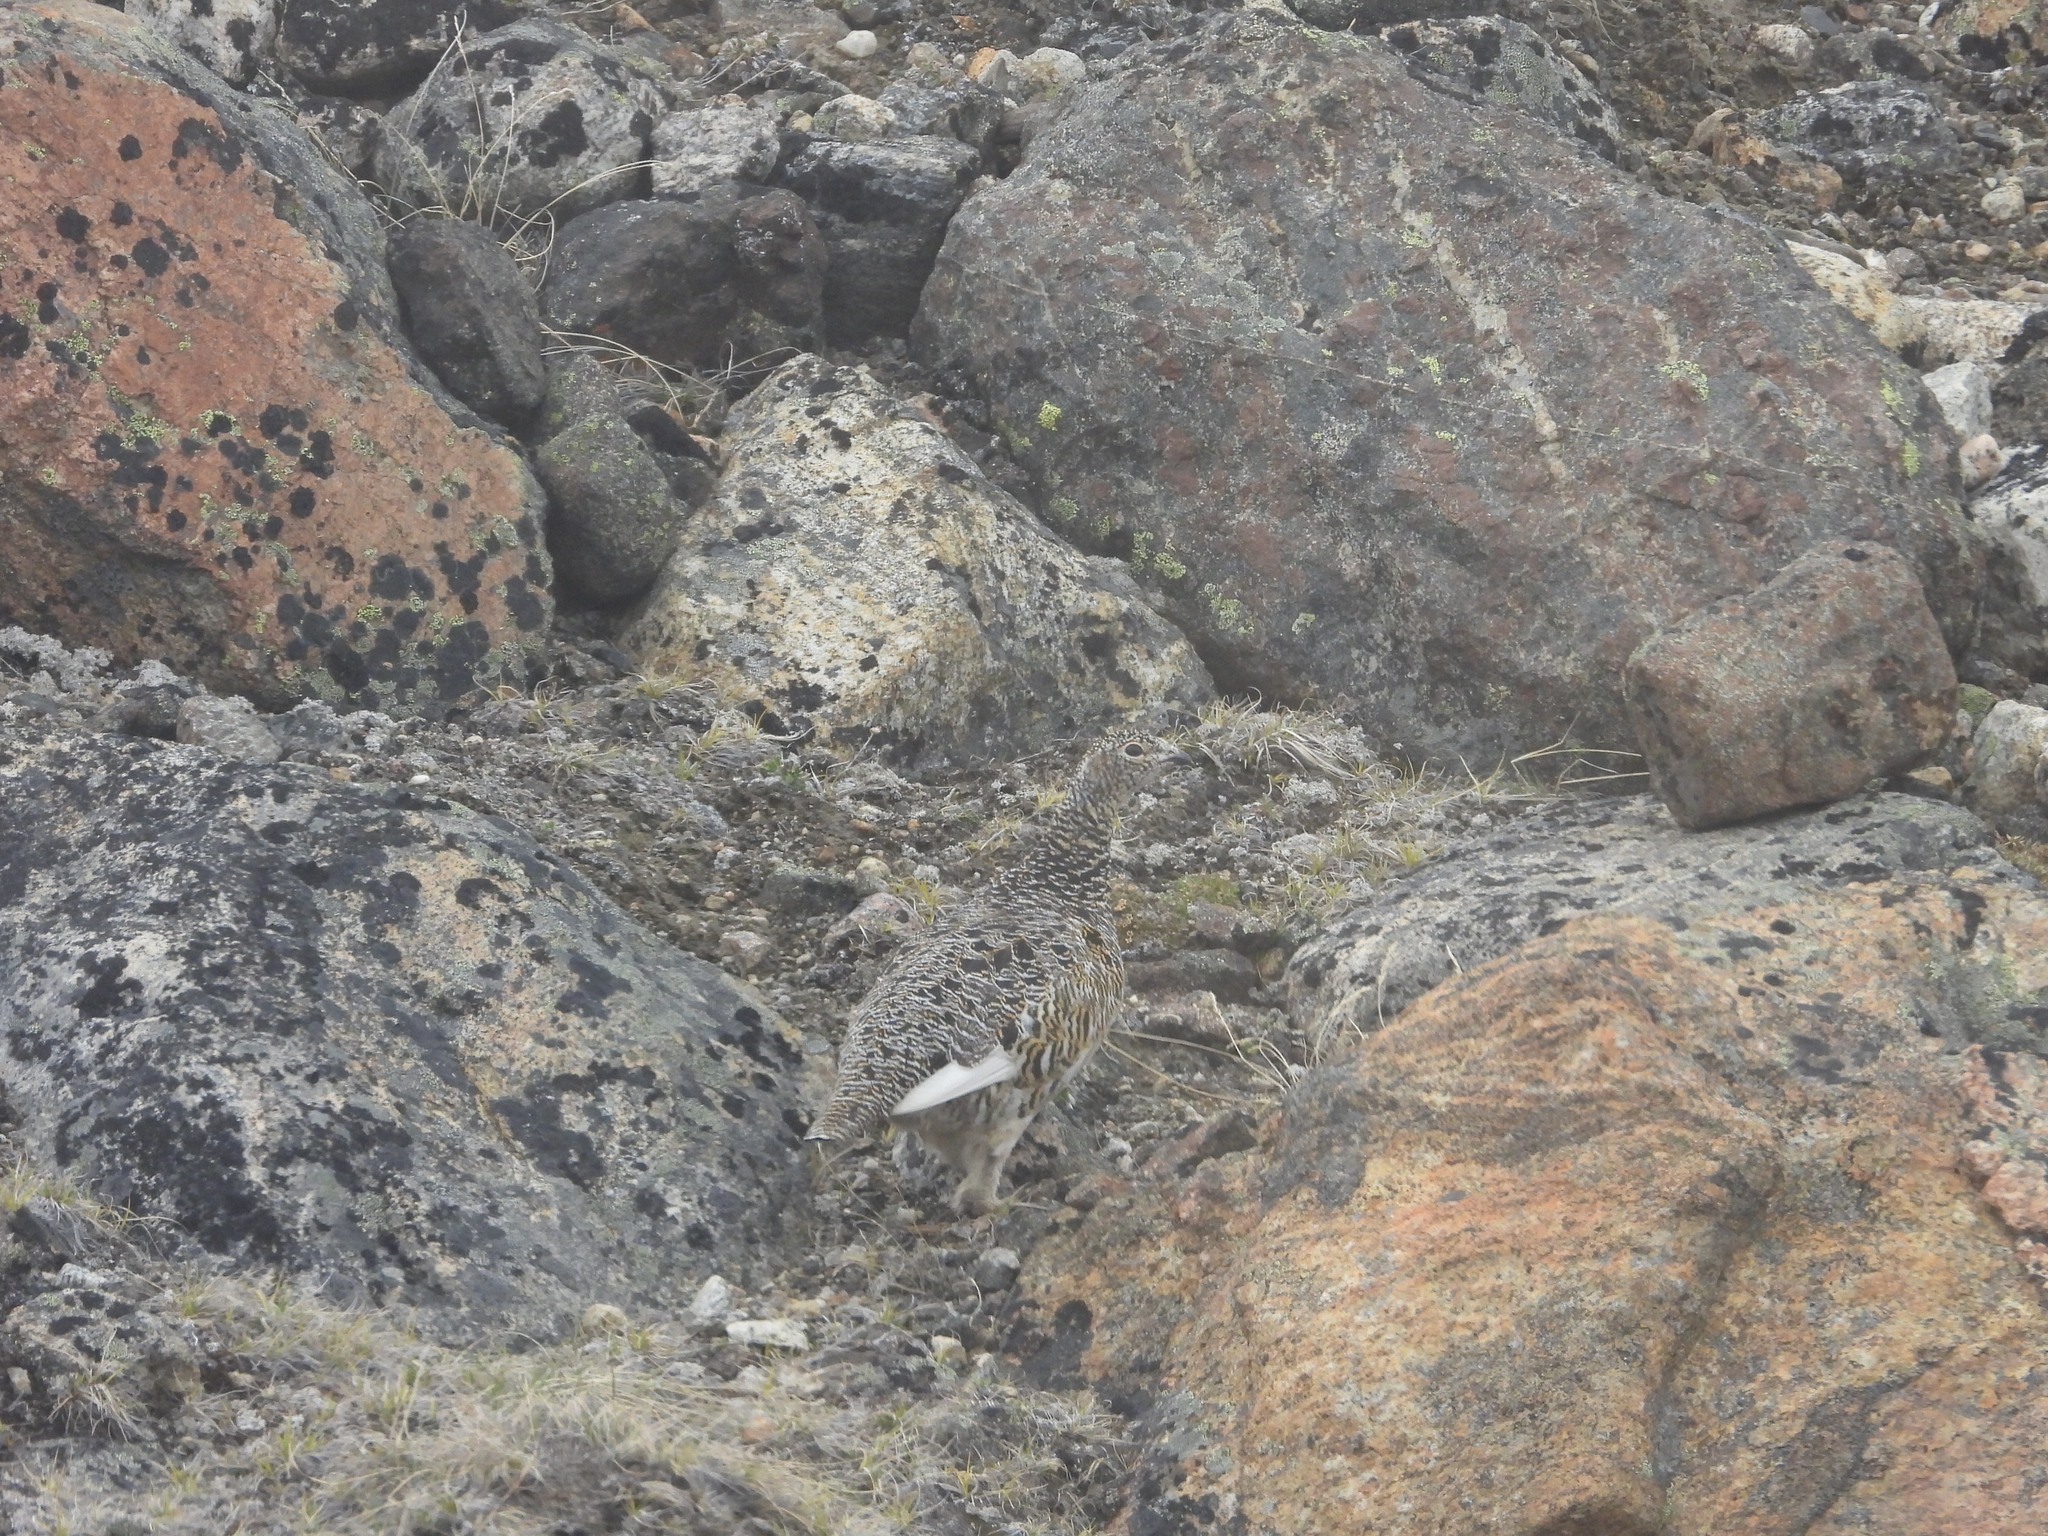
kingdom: Animalia
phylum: Chordata
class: Aves
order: Galliformes
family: Phasianidae
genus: Lagopus
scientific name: Lagopus muta
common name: Rock ptarmigan
